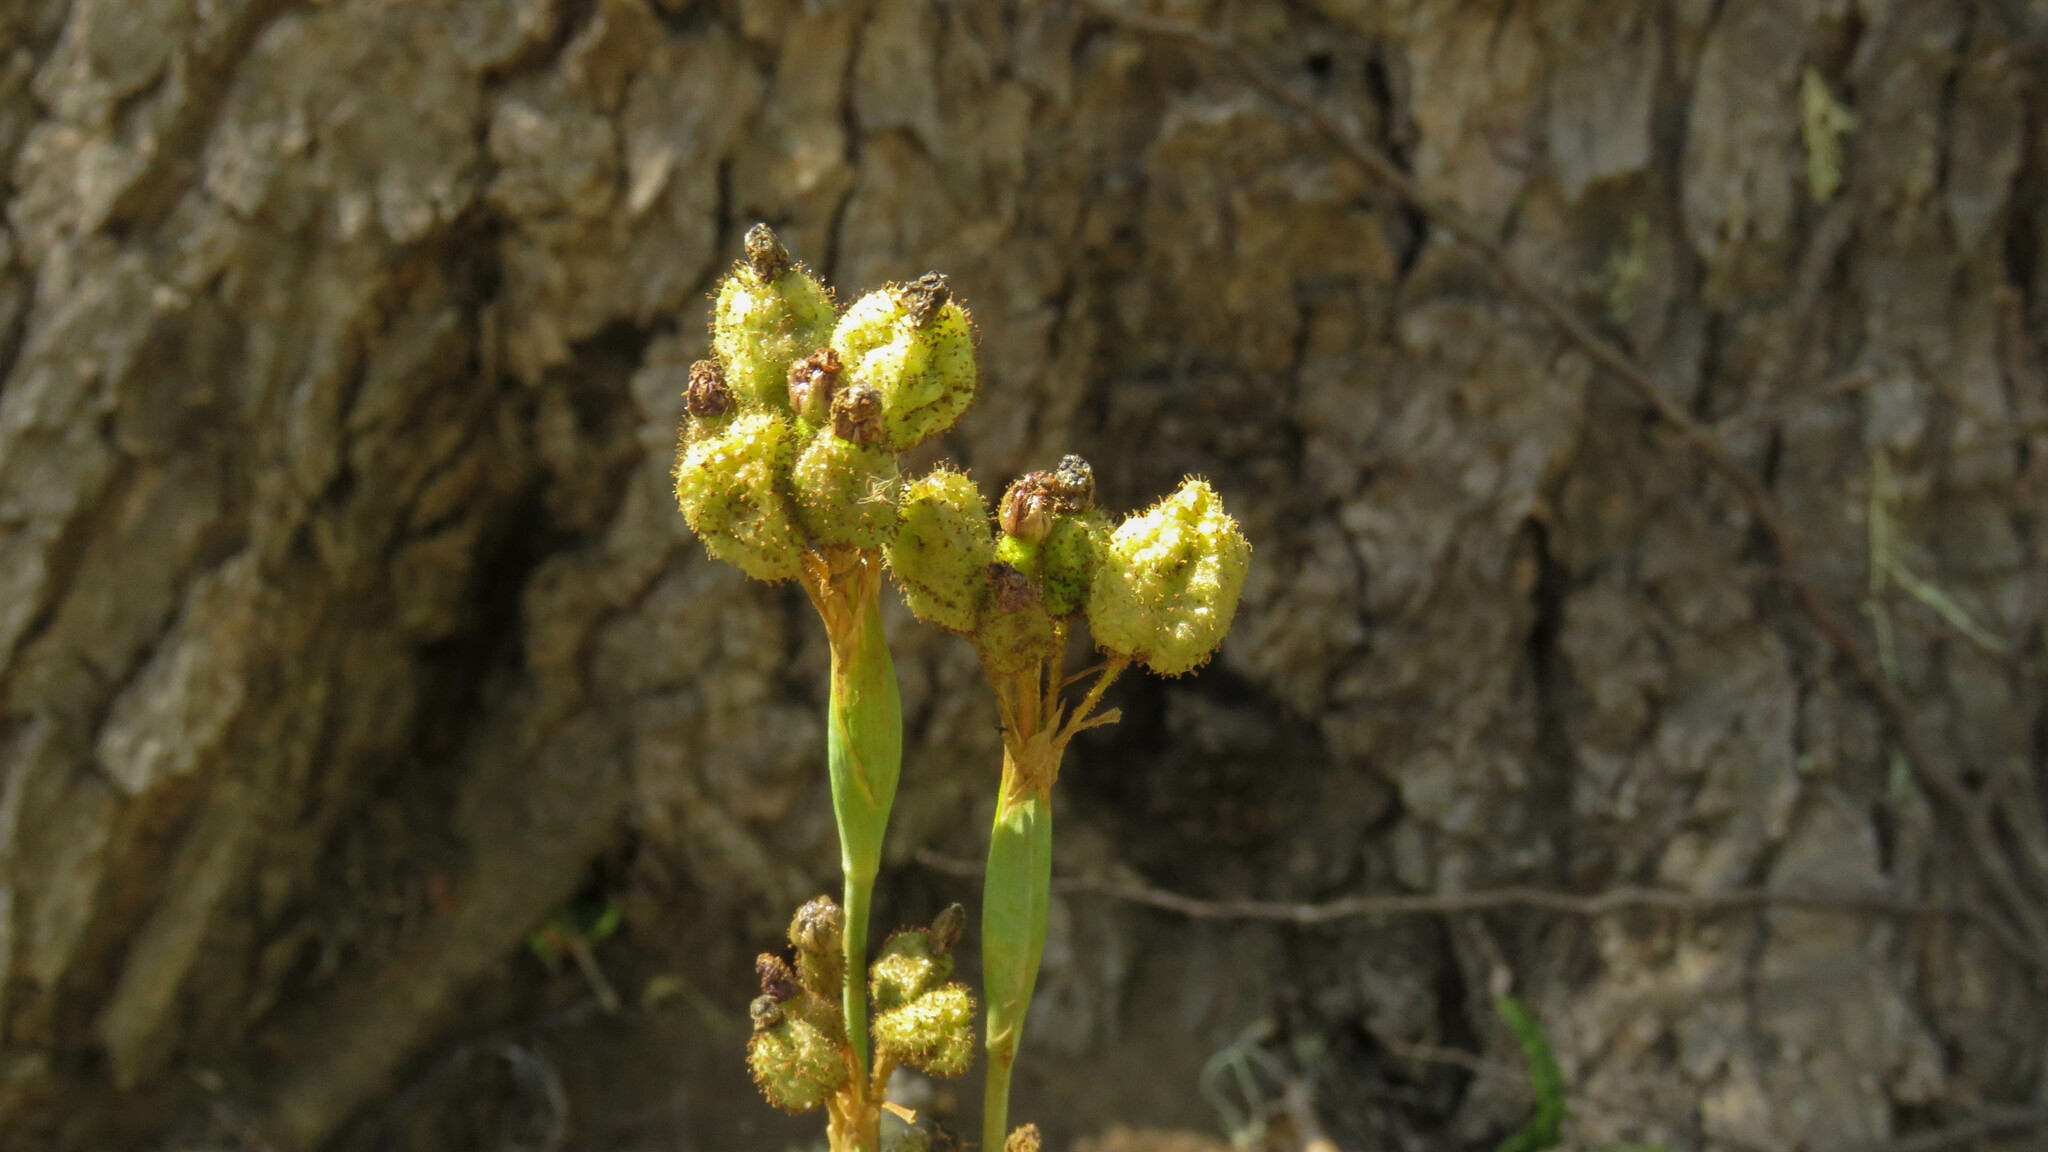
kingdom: Plantae
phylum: Tracheophyta
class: Liliopsida
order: Asparagales
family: Iridaceae
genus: Sisyrinchium
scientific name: Sisyrinchium arenarium
